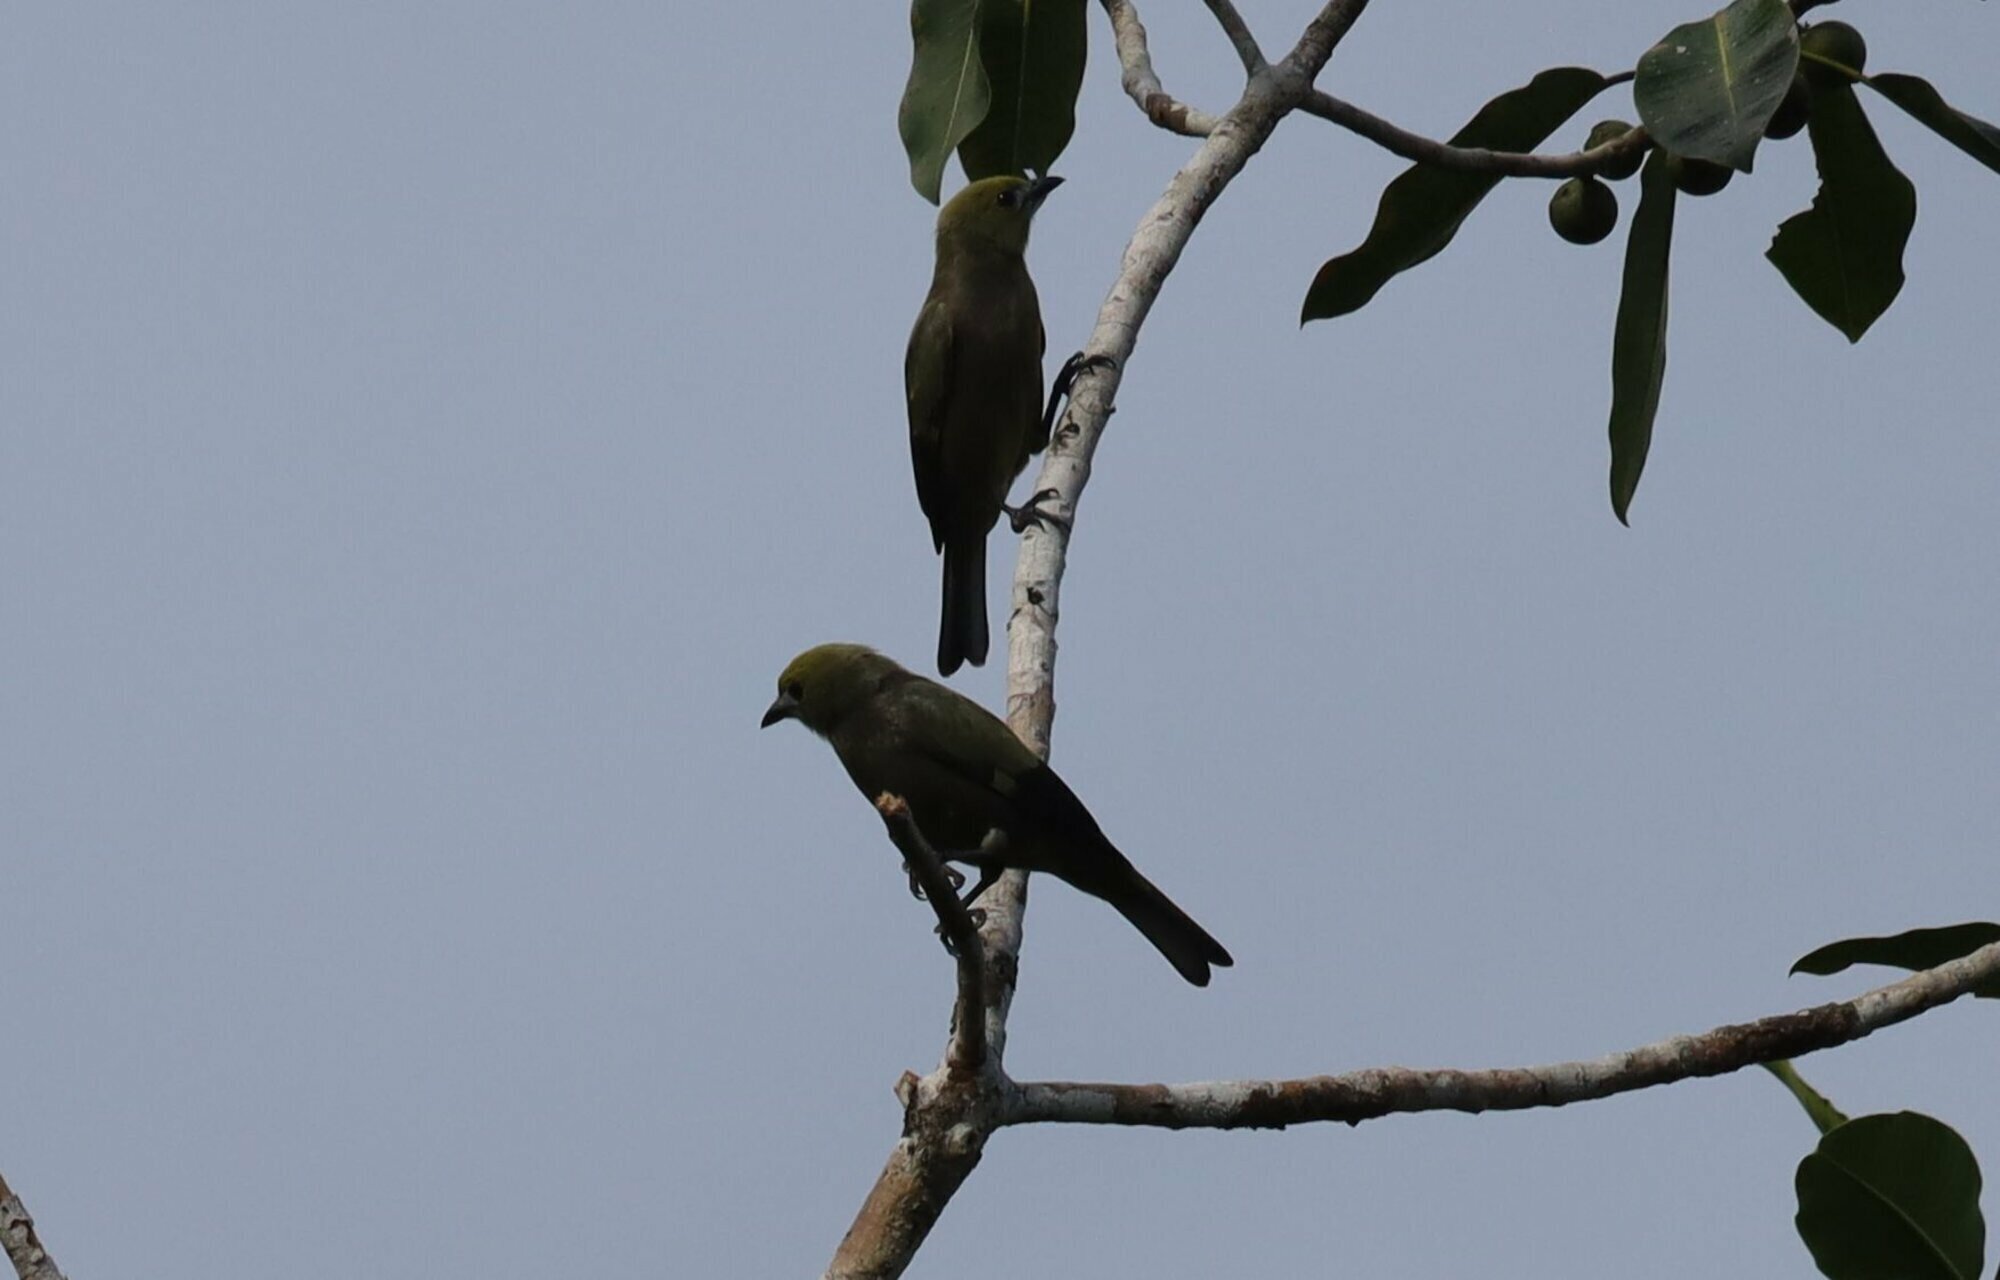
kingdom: Animalia
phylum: Chordata
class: Aves
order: Passeriformes
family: Thraupidae
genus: Thraupis
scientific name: Thraupis palmarum
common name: Palm tanager
